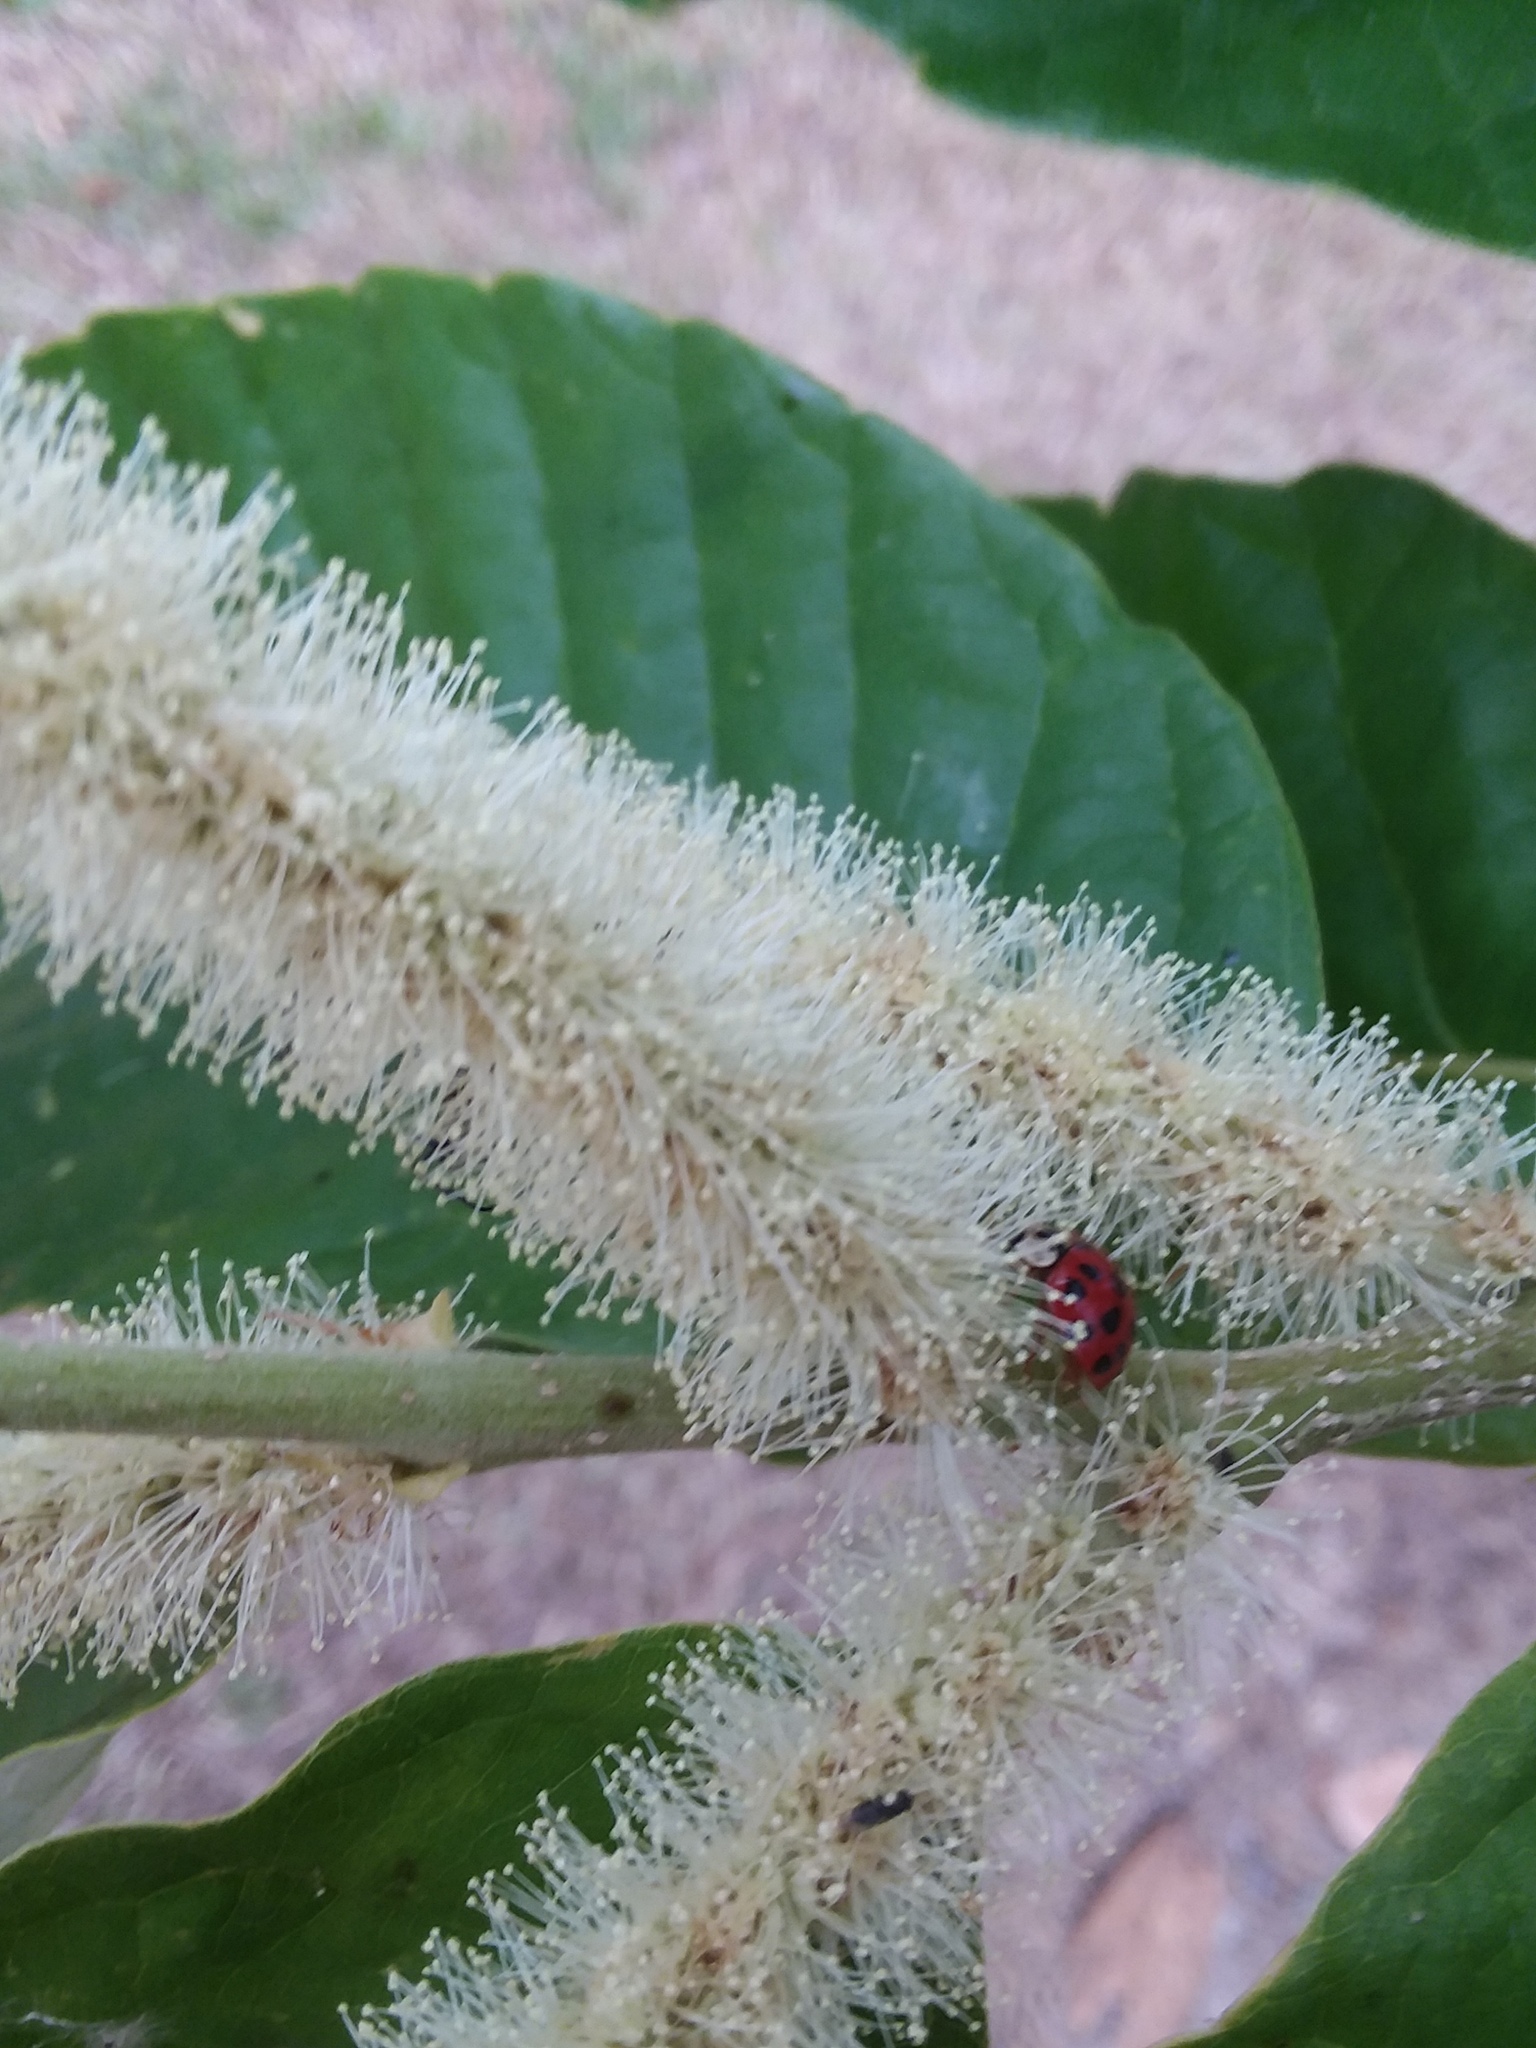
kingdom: Animalia
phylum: Arthropoda
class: Insecta
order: Coleoptera
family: Coccinellidae
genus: Harmonia
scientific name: Harmonia axyridis
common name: Harlequin ladybird
